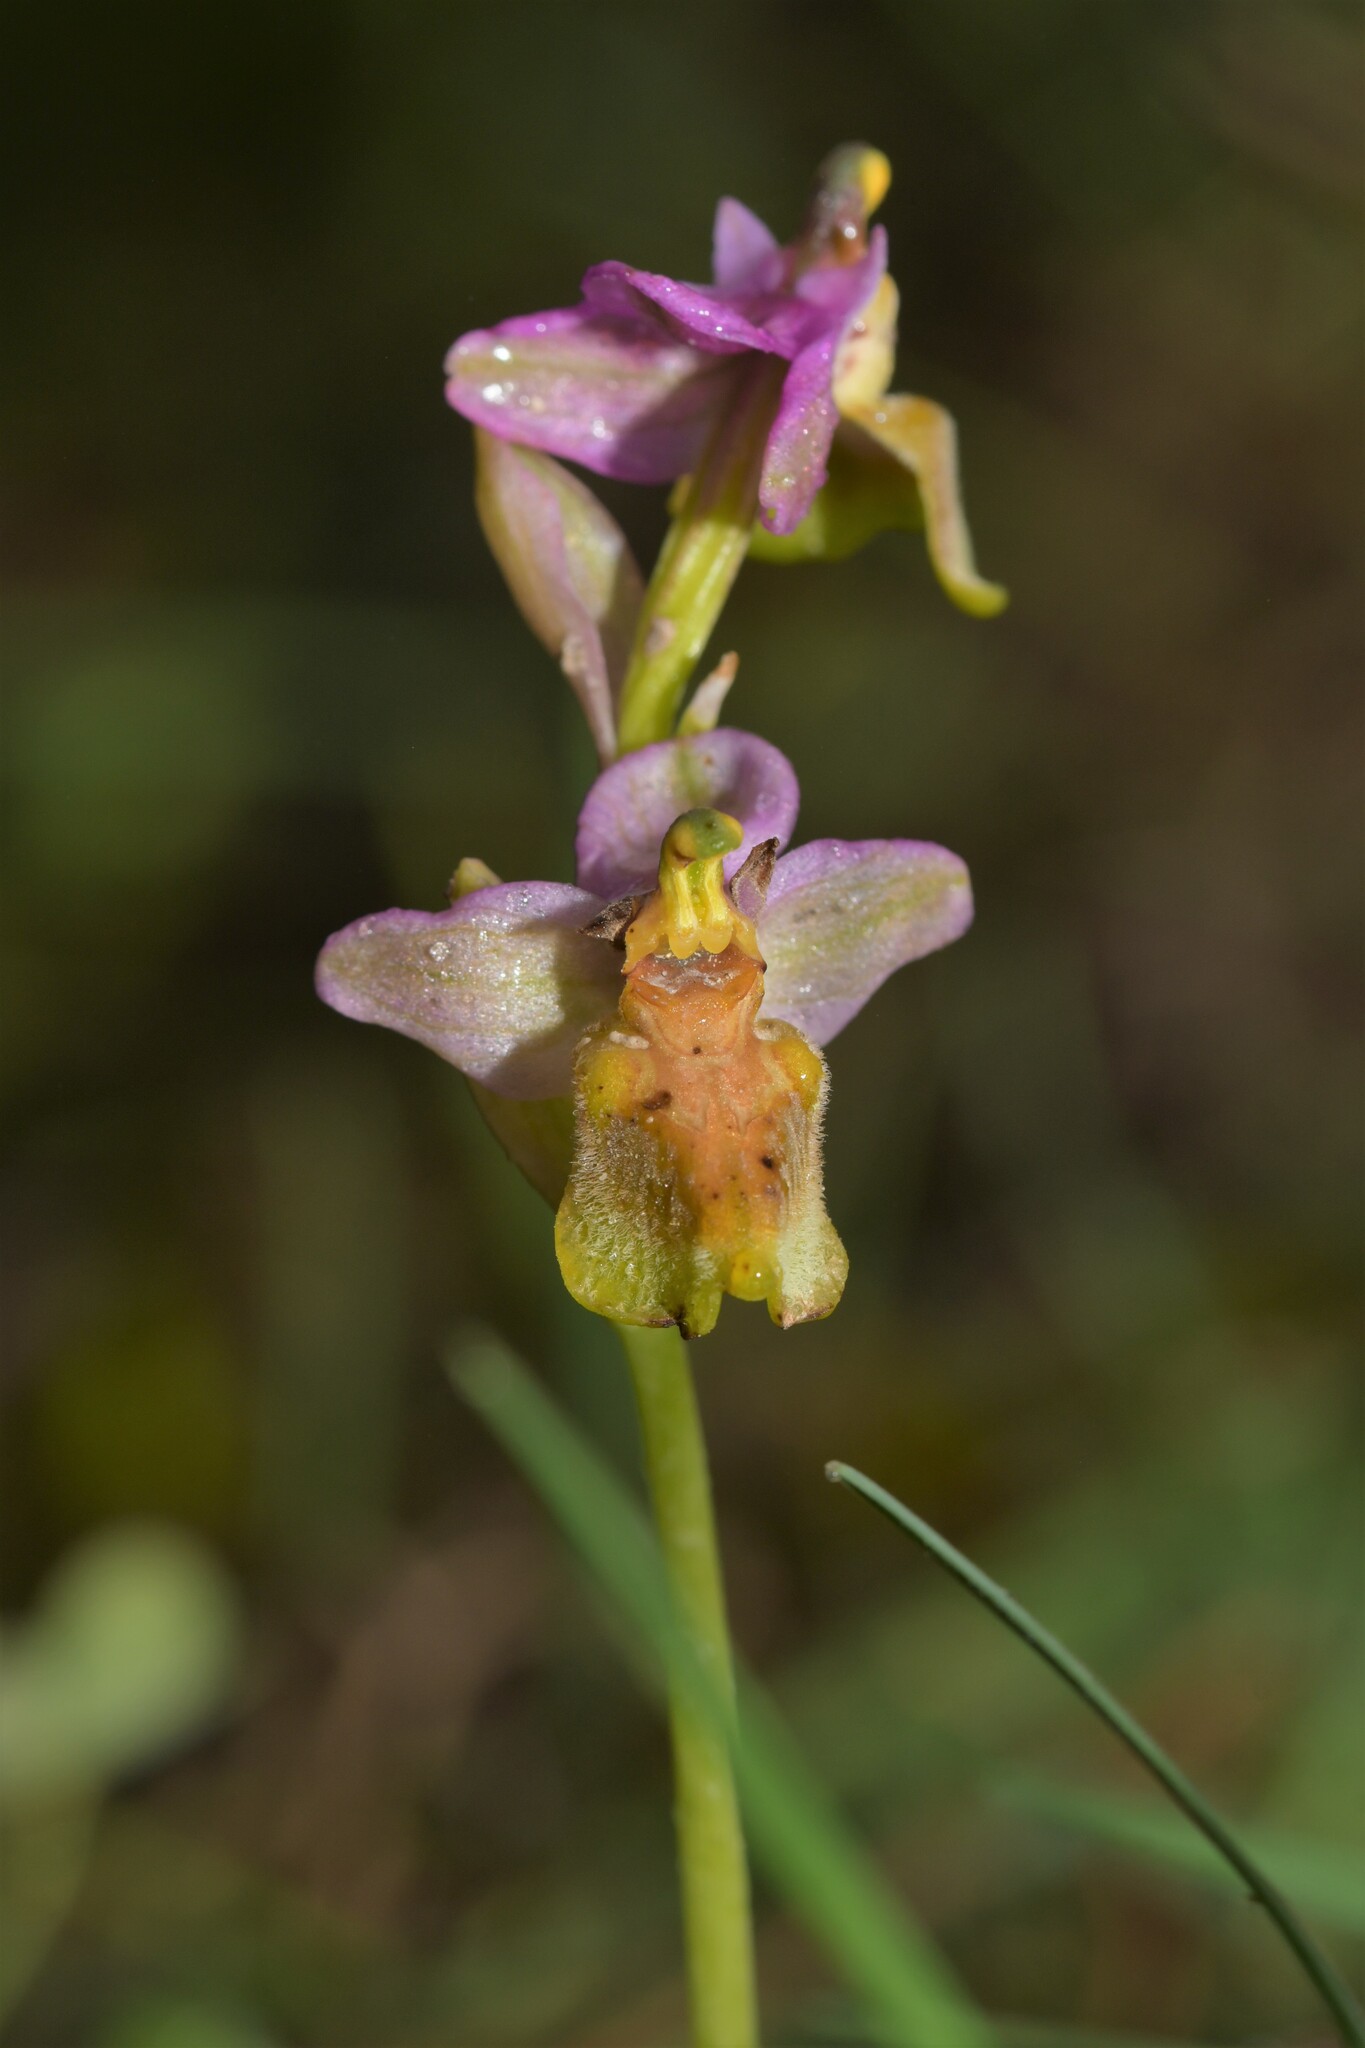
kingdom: Plantae
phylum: Tracheophyta
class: Liliopsida
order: Asparagales
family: Orchidaceae
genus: Ophrys
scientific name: Ophrys tenthredinifera
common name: Sawfly orchid
